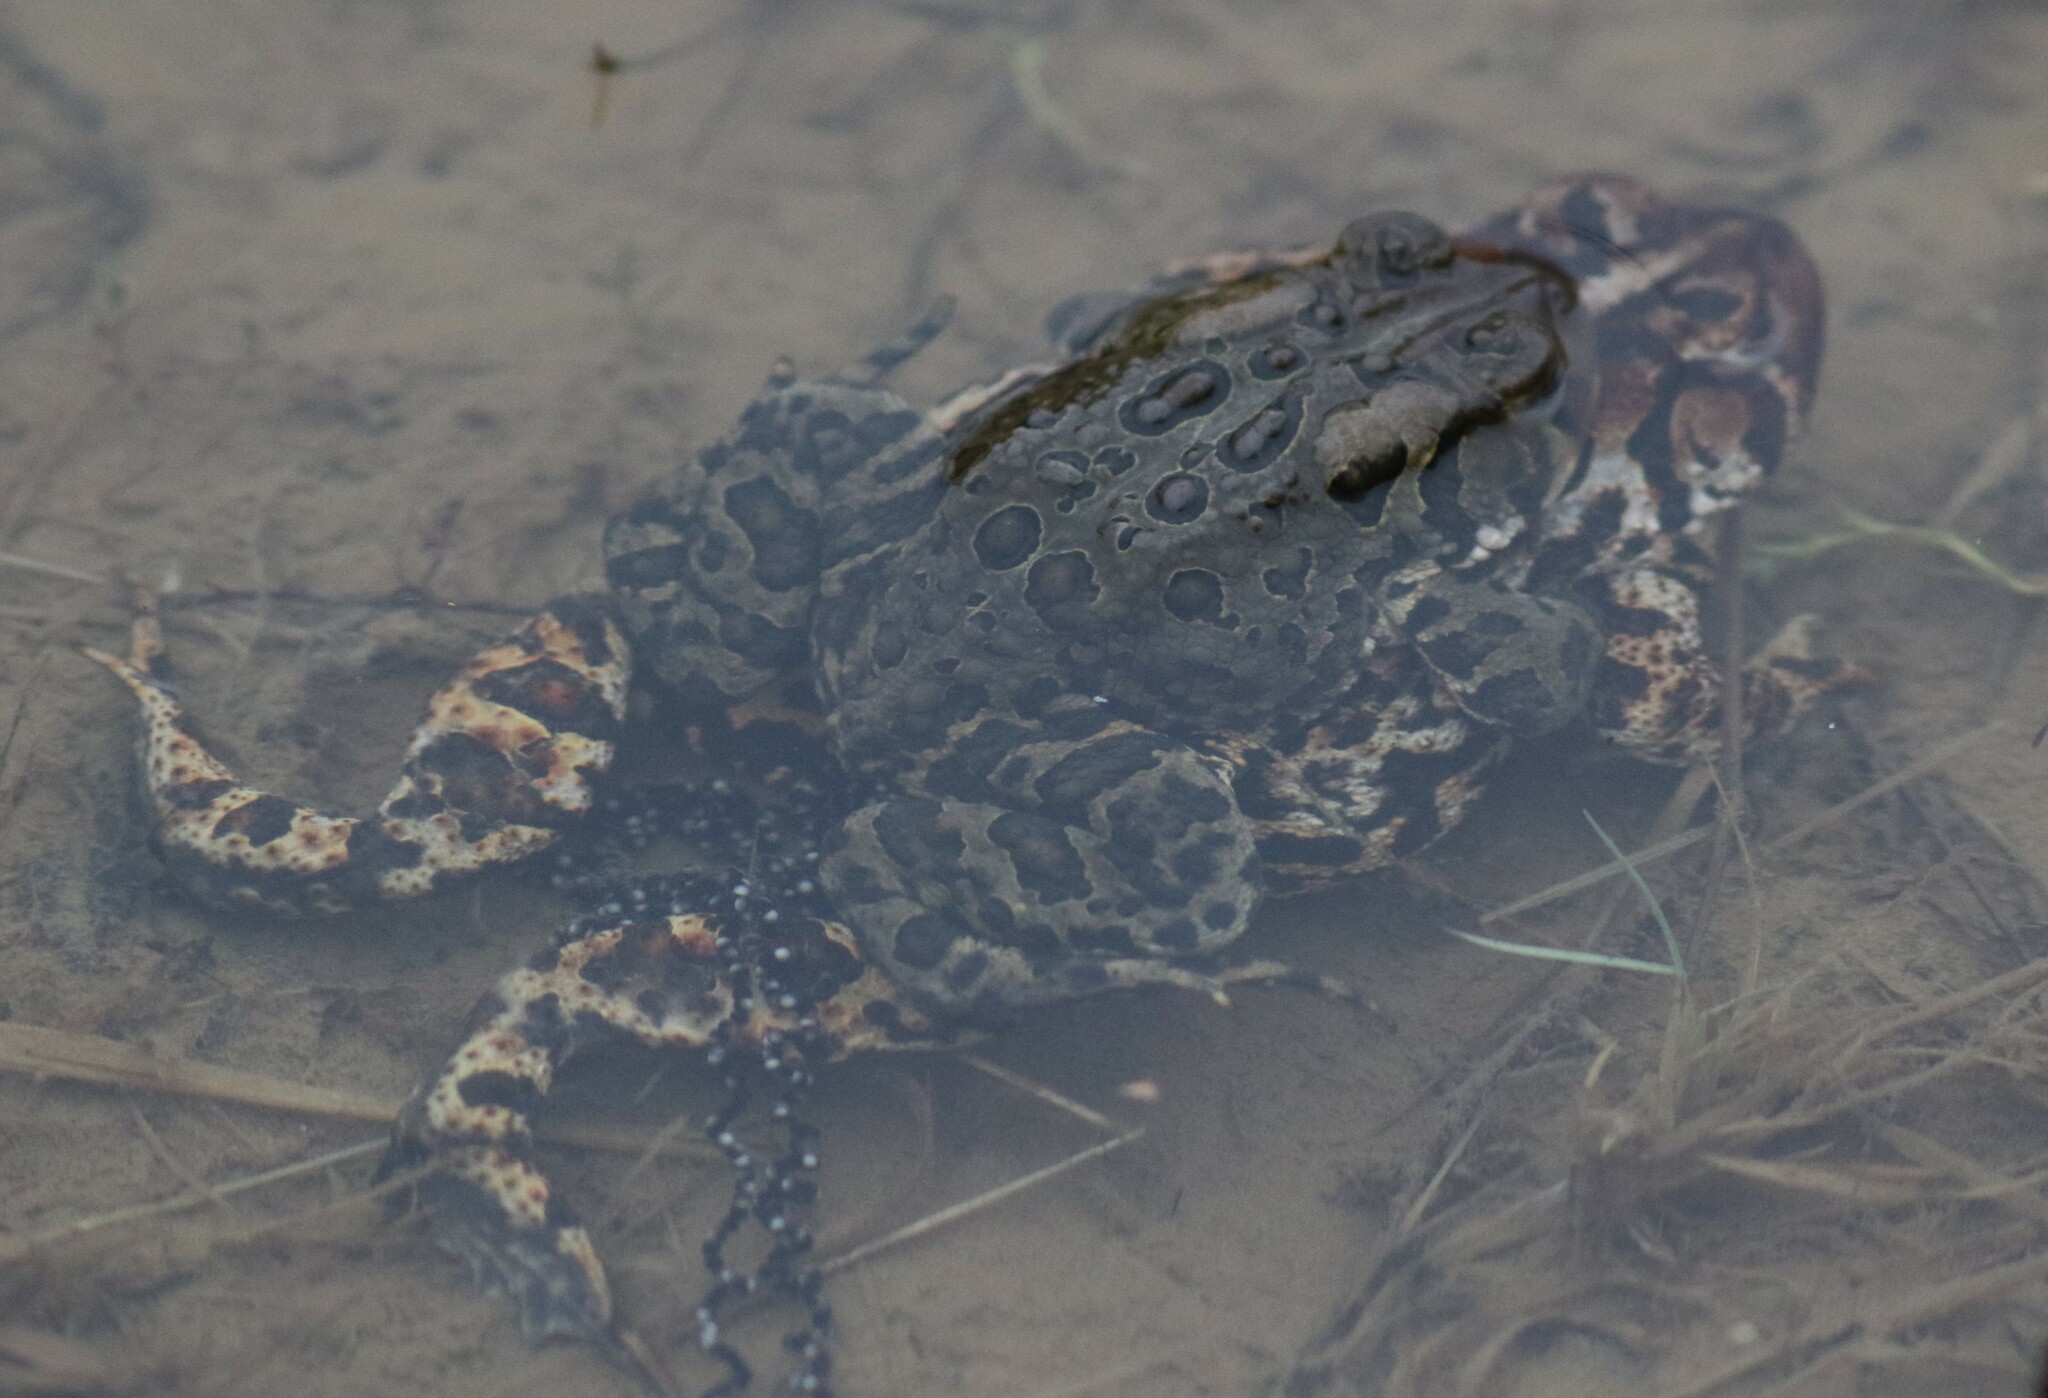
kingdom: Animalia
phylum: Chordata
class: Amphibia
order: Anura
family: Bufonidae
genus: Anaxyrus
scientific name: Anaxyrus americanus
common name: American toad
